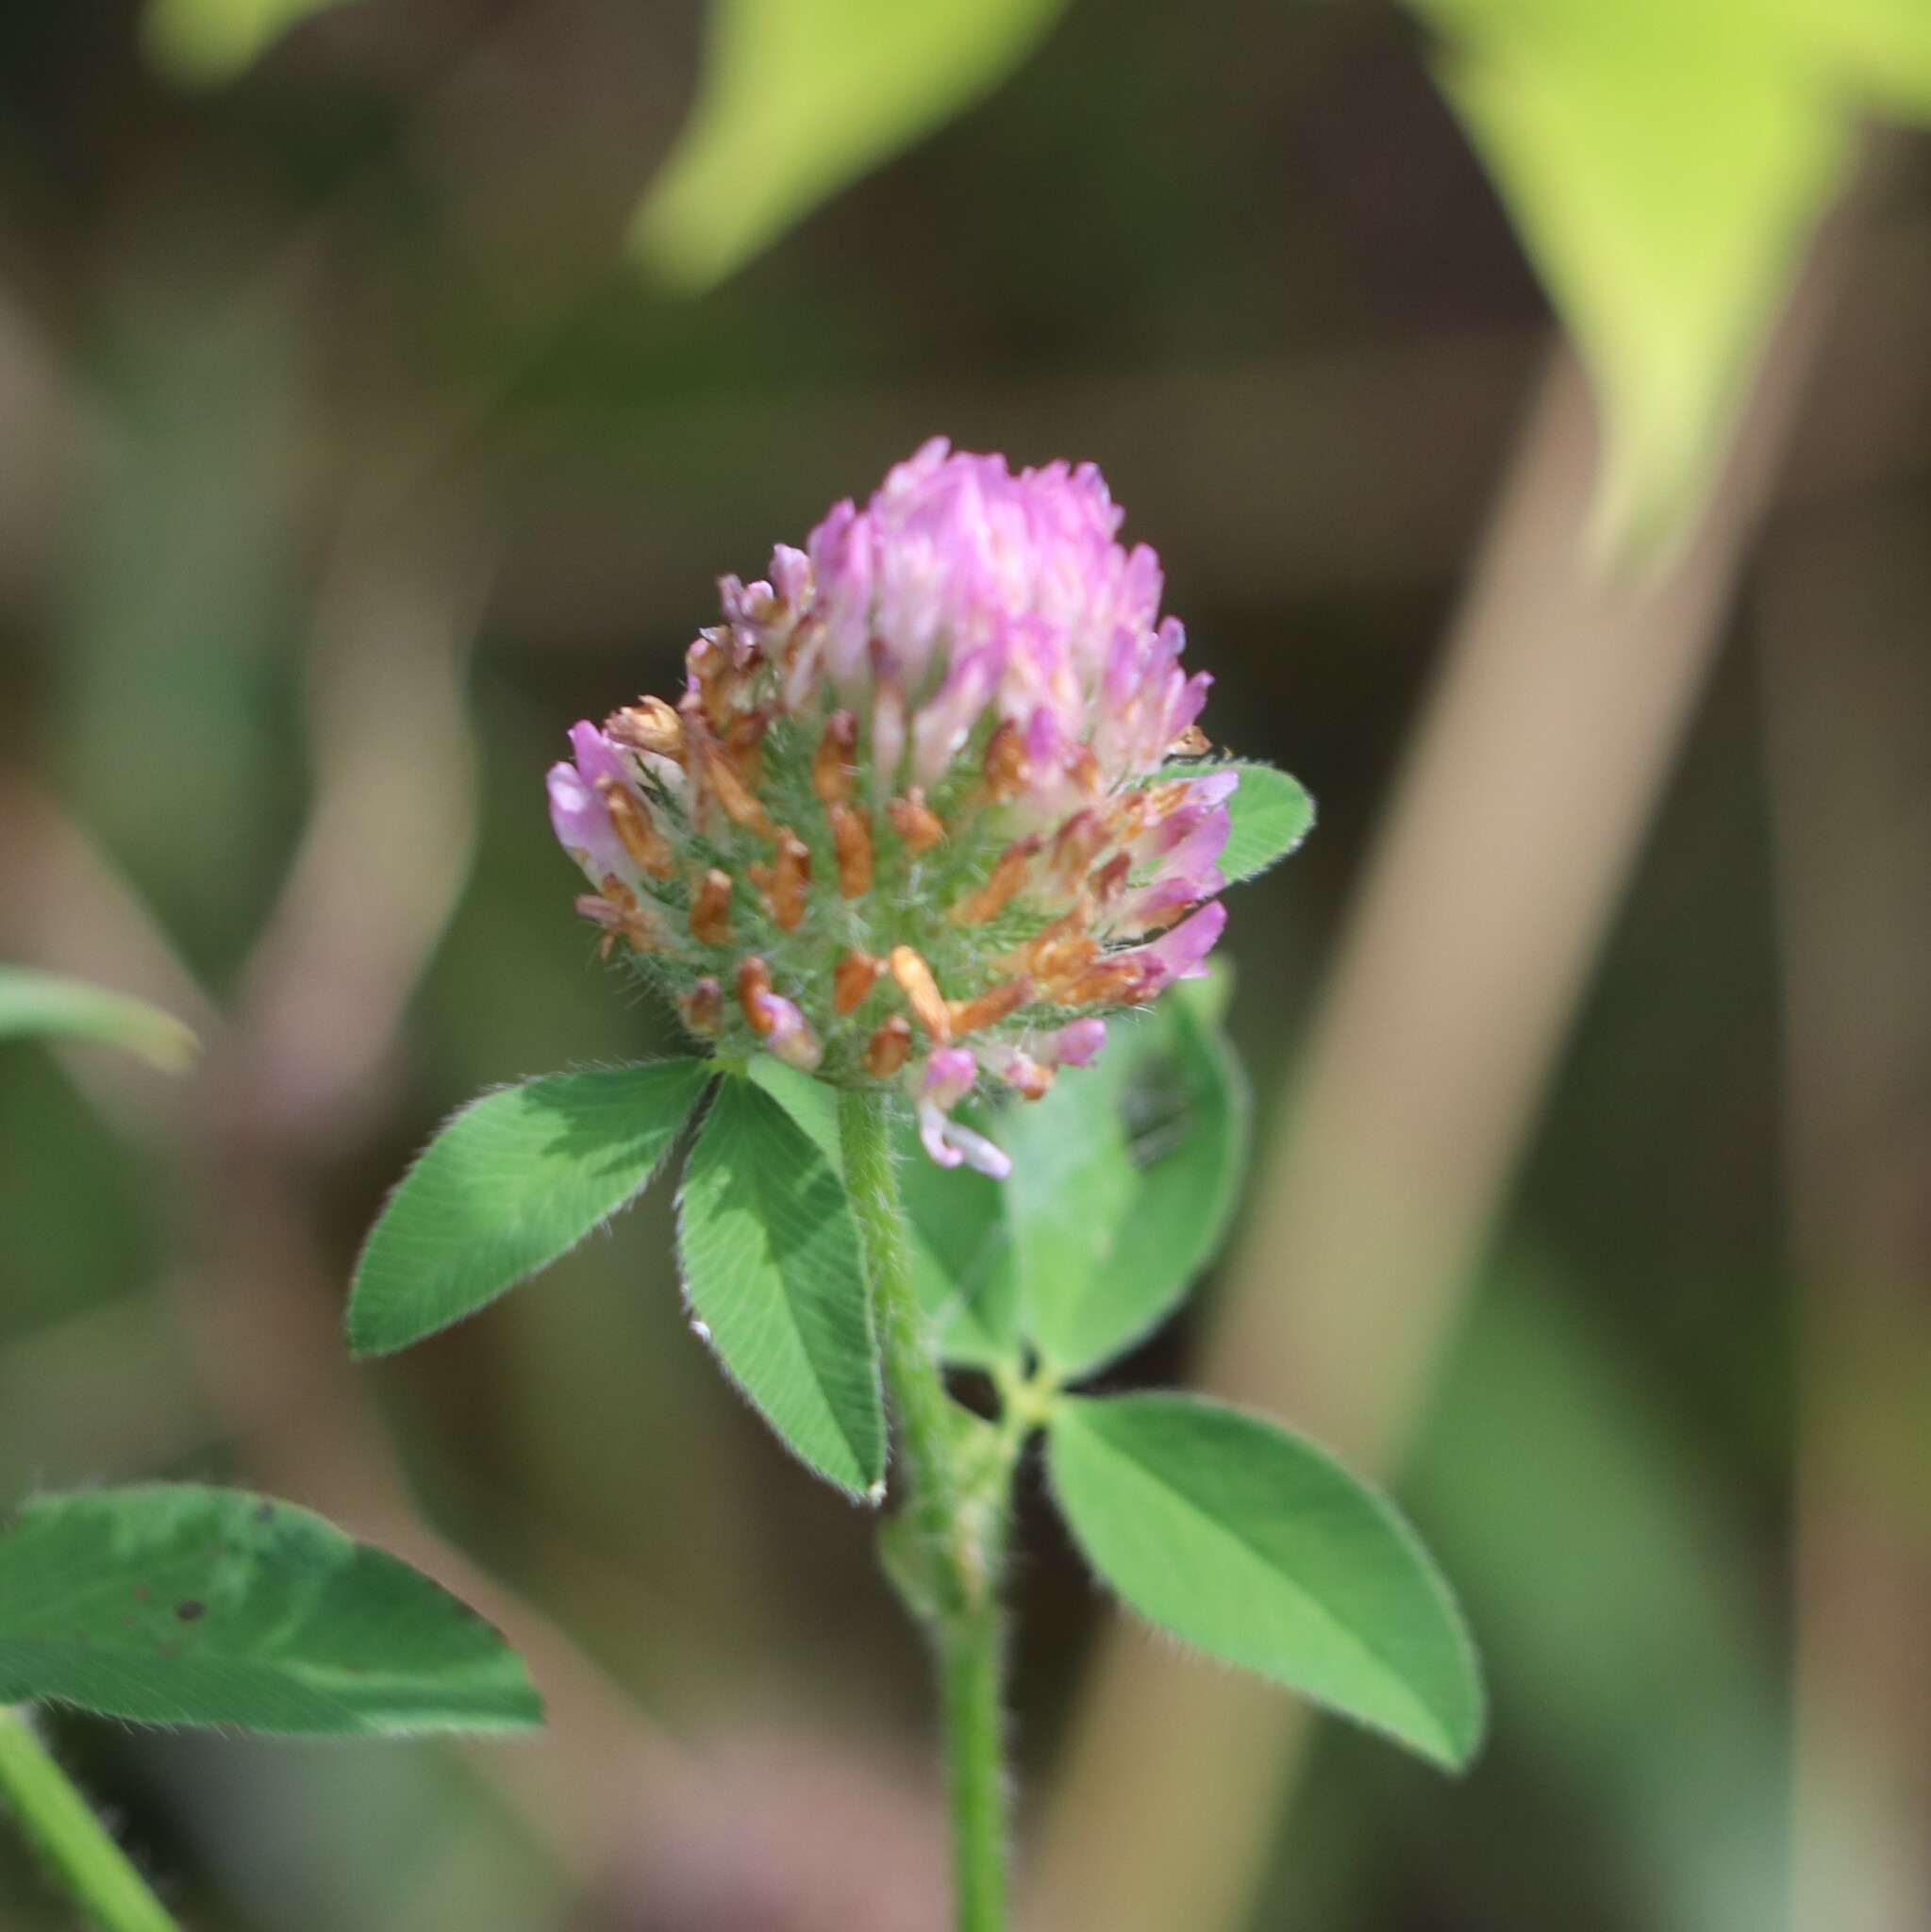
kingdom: Plantae
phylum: Tracheophyta
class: Magnoliopsida
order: Fabales
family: Fabaceae
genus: Trifolium
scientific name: Trifolium pratense
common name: Red clover
